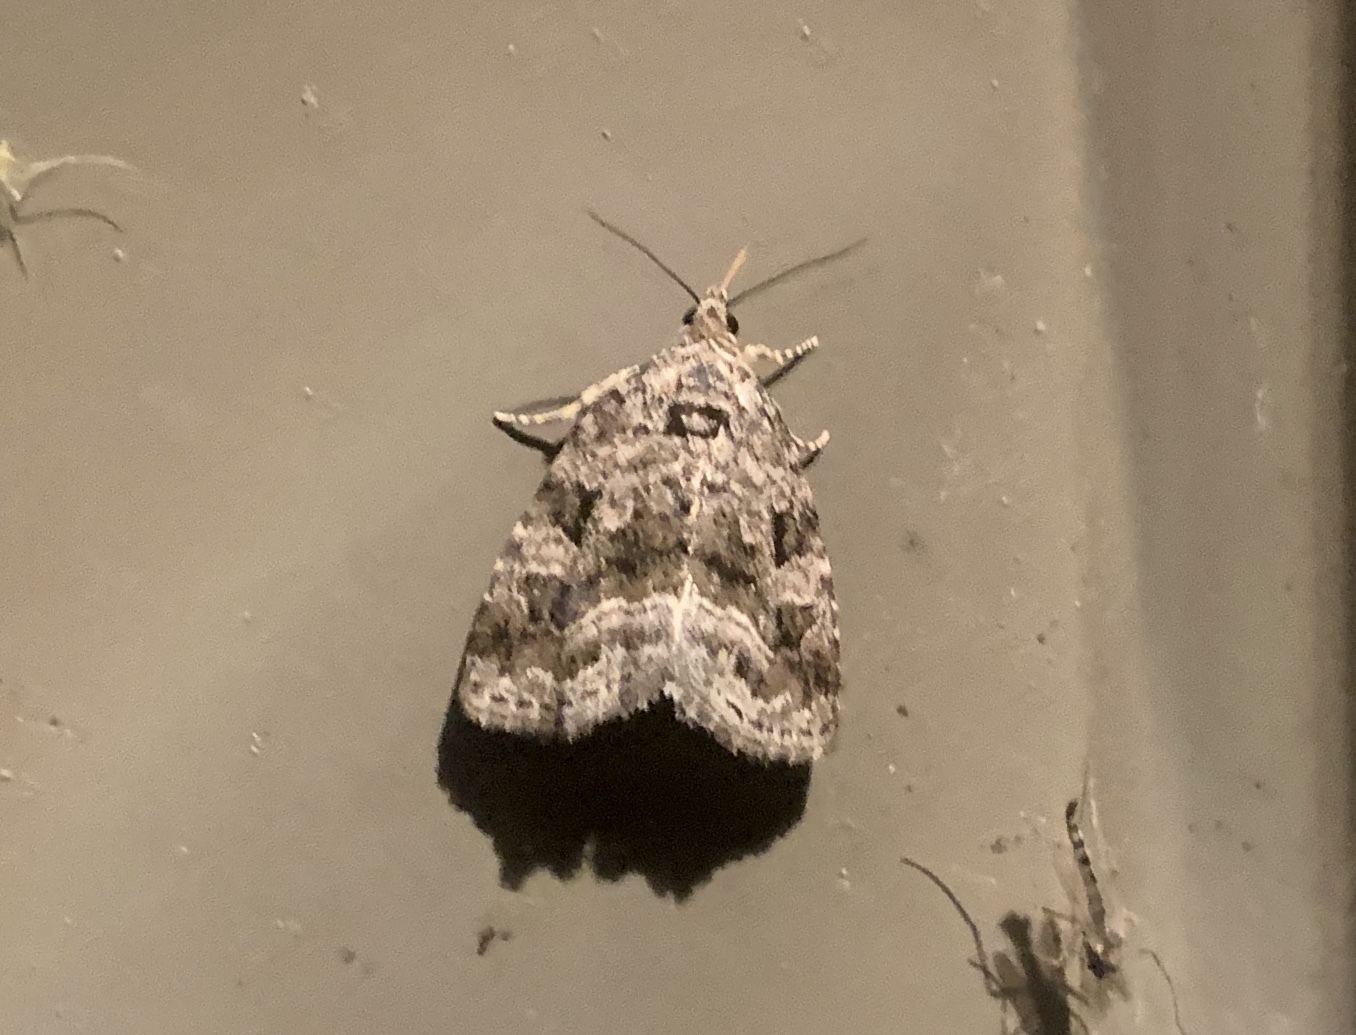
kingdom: Animalia
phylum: Arthropoda
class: Insecta
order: Lepidoptera
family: Noctuidae
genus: Protodeltote
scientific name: Protodeltote muscosula
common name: Large mossy glyph
